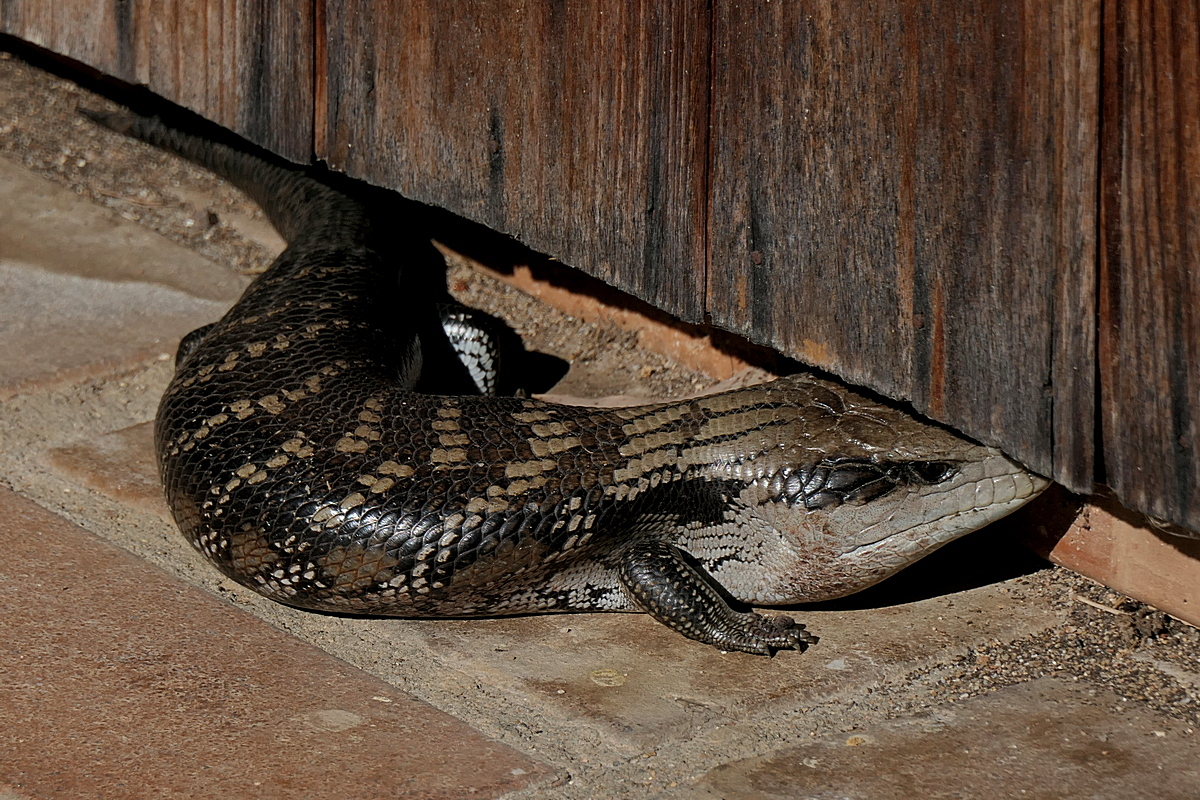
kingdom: Animalia
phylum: Chordata
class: Squamata
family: Scincidae
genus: Tiliqua
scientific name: Tiliqua scincoides
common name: Common bluetongue
